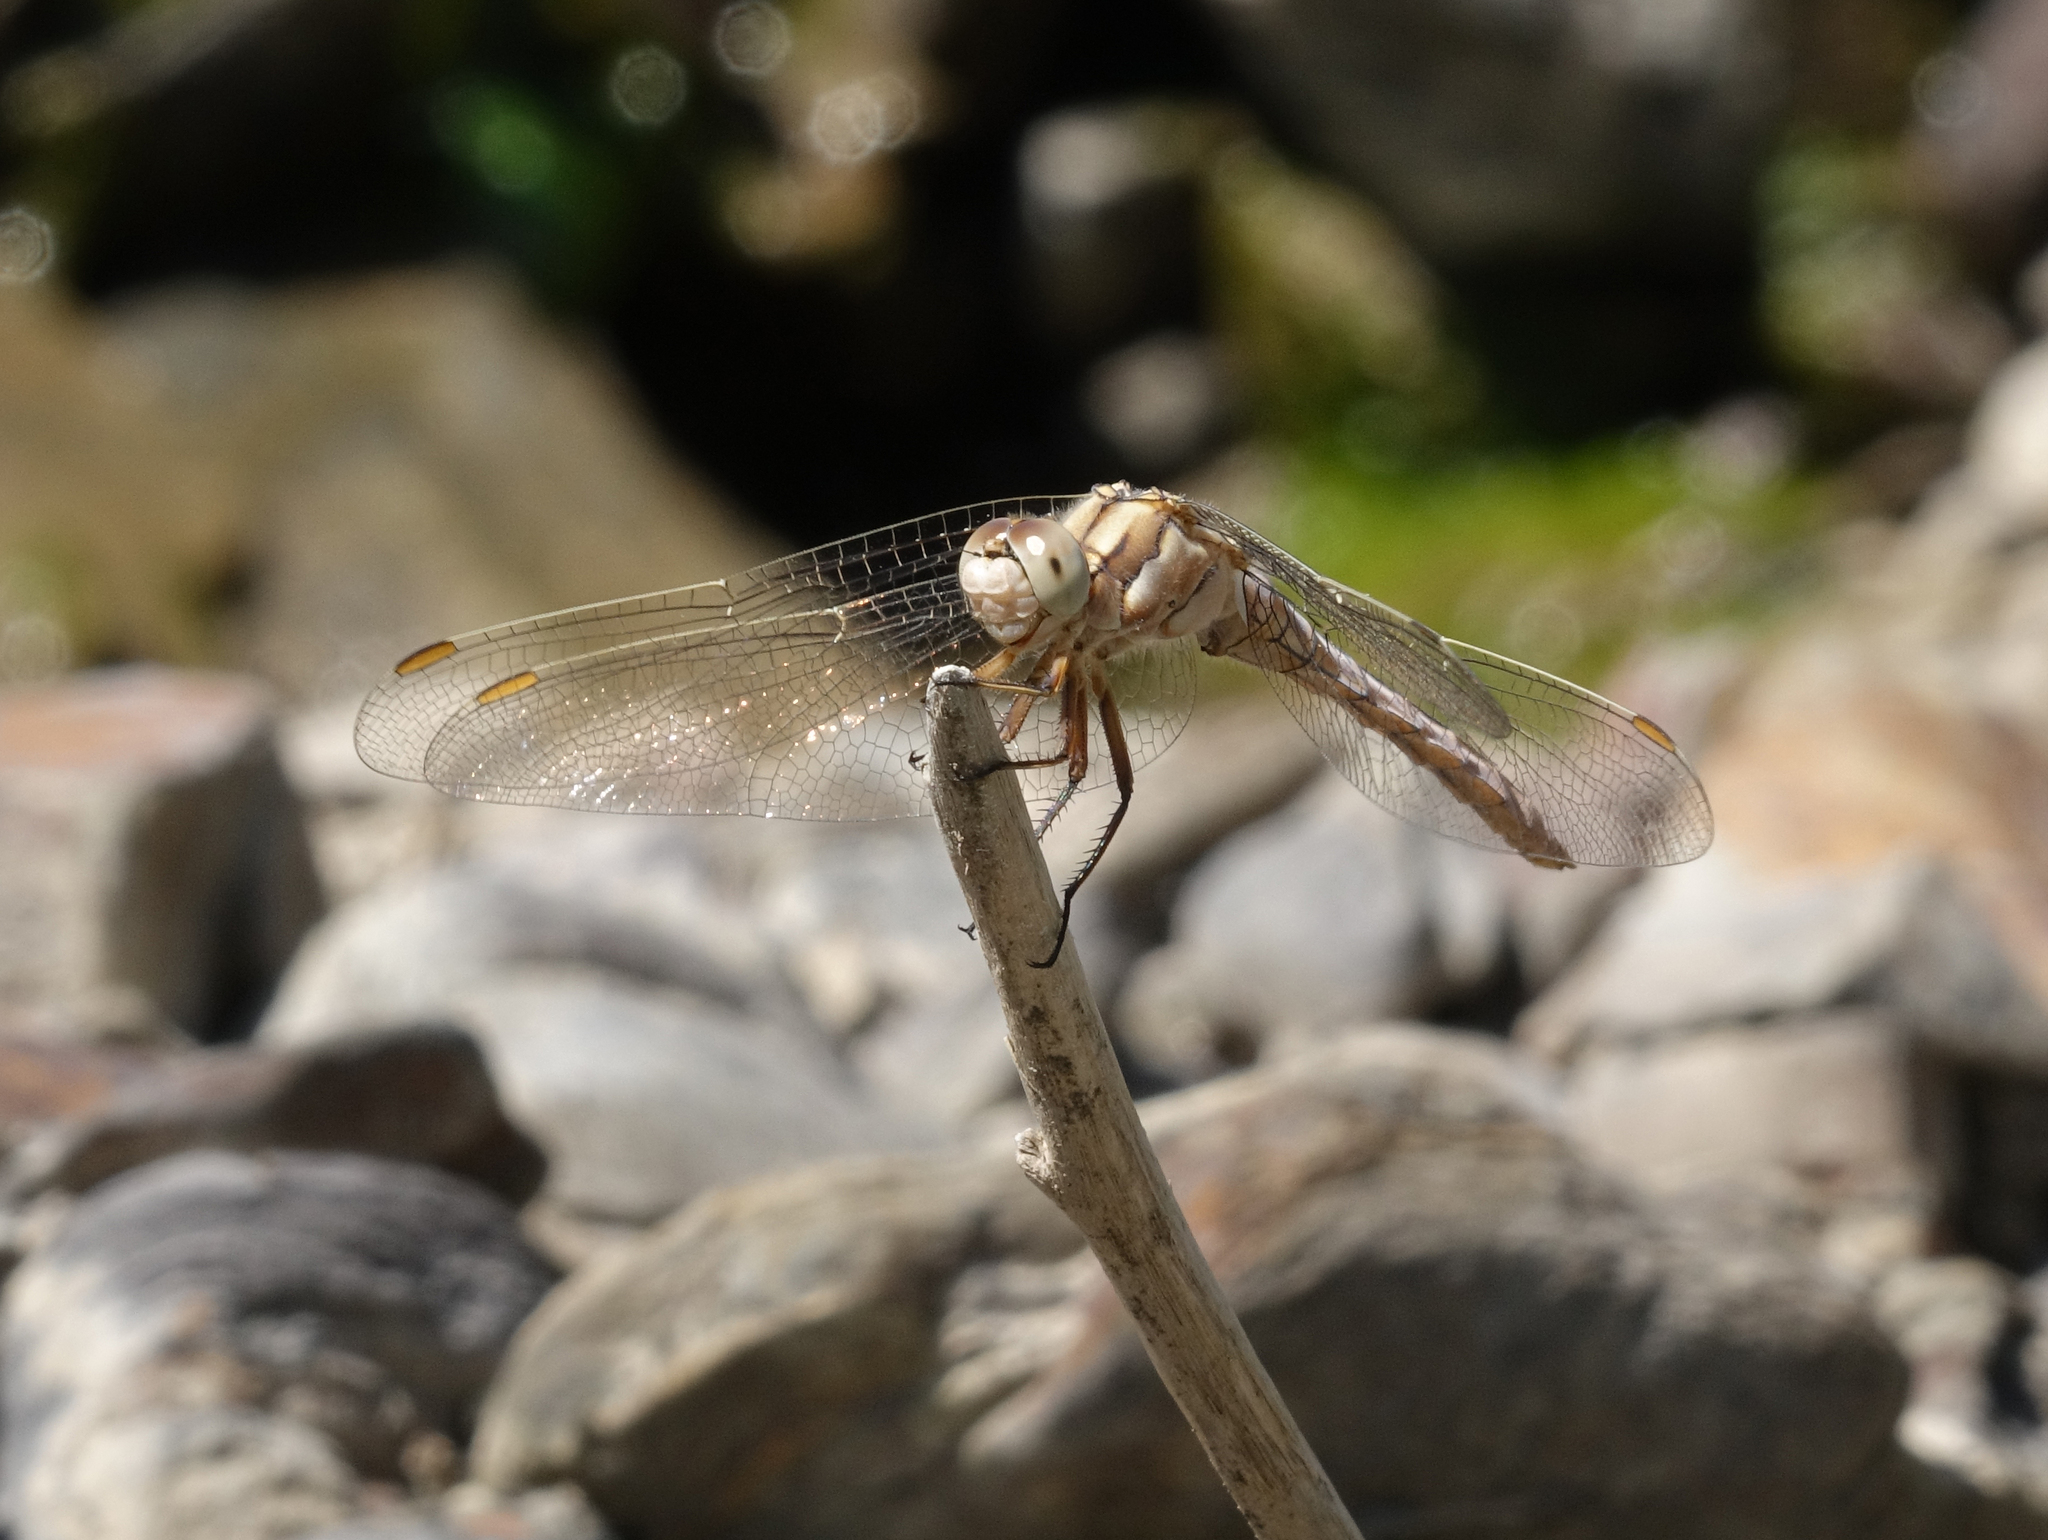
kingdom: Animalia
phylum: Arthropoda
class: Insecta
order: Odonata
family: Libellulidae
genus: Orthetrum
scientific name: Orthetrum brunneum
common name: Southern skimmer
